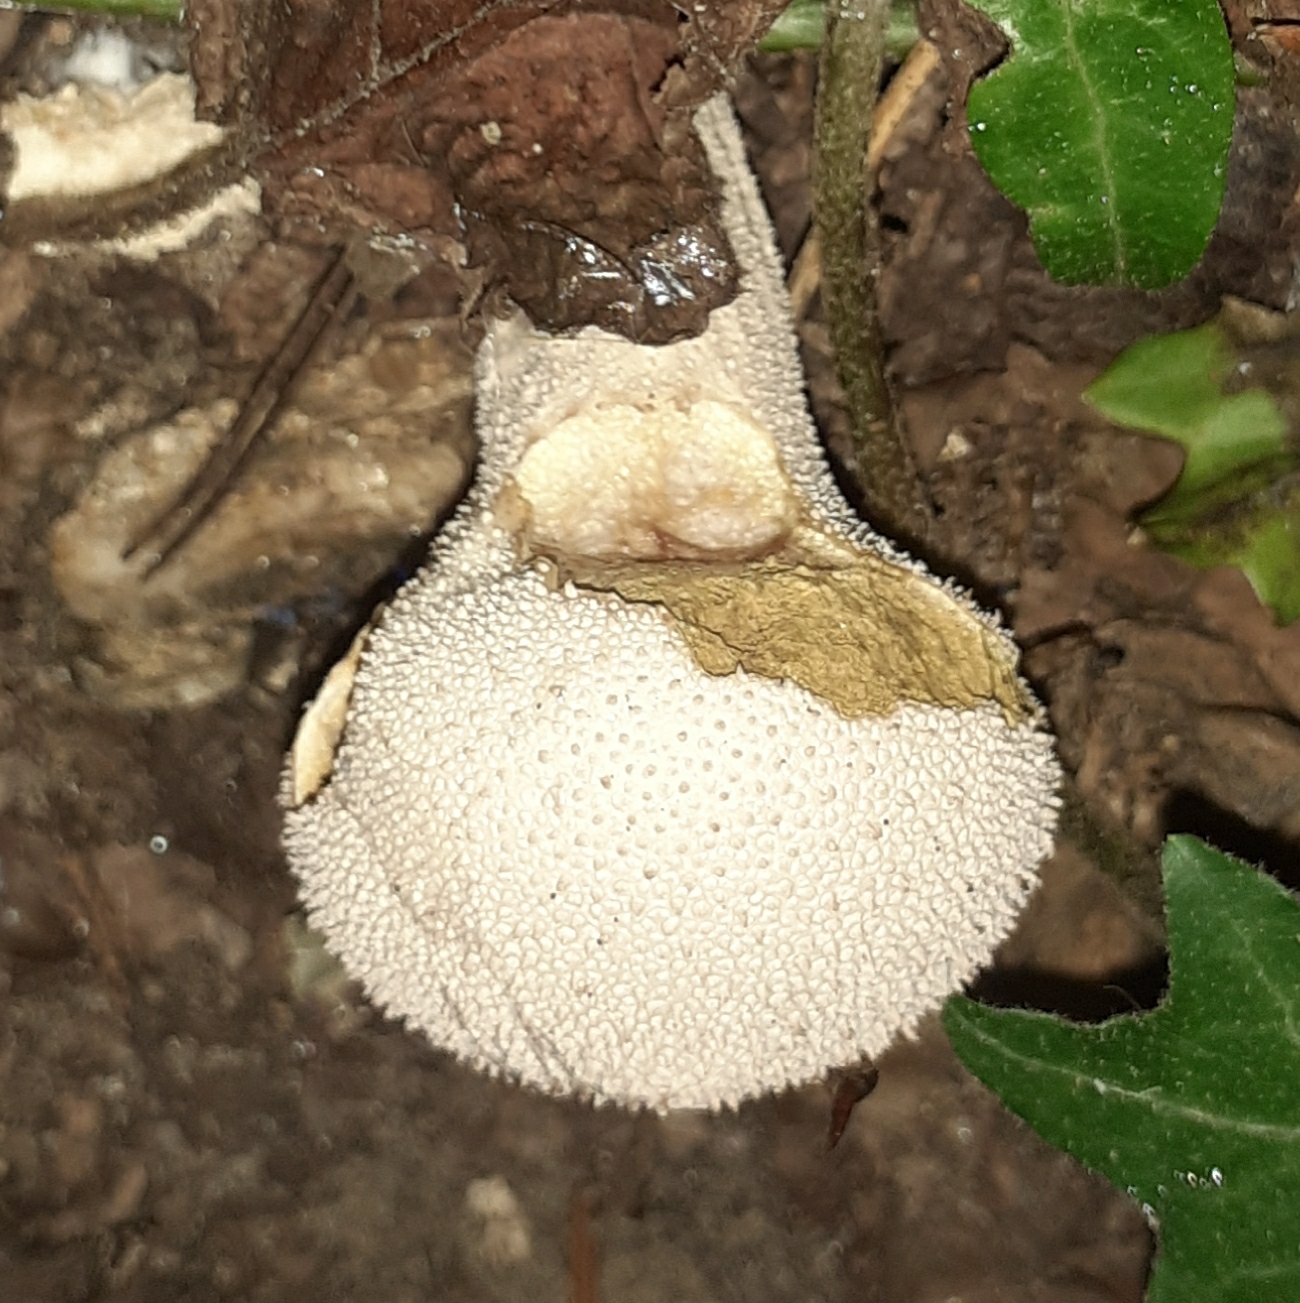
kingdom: Fungi
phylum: Basidiomycota
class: Agaricomycetes
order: Agaricales
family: Lycoperdaceae
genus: Lycoperdon
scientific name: Lycoperdon perlatum
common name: Common puffball
